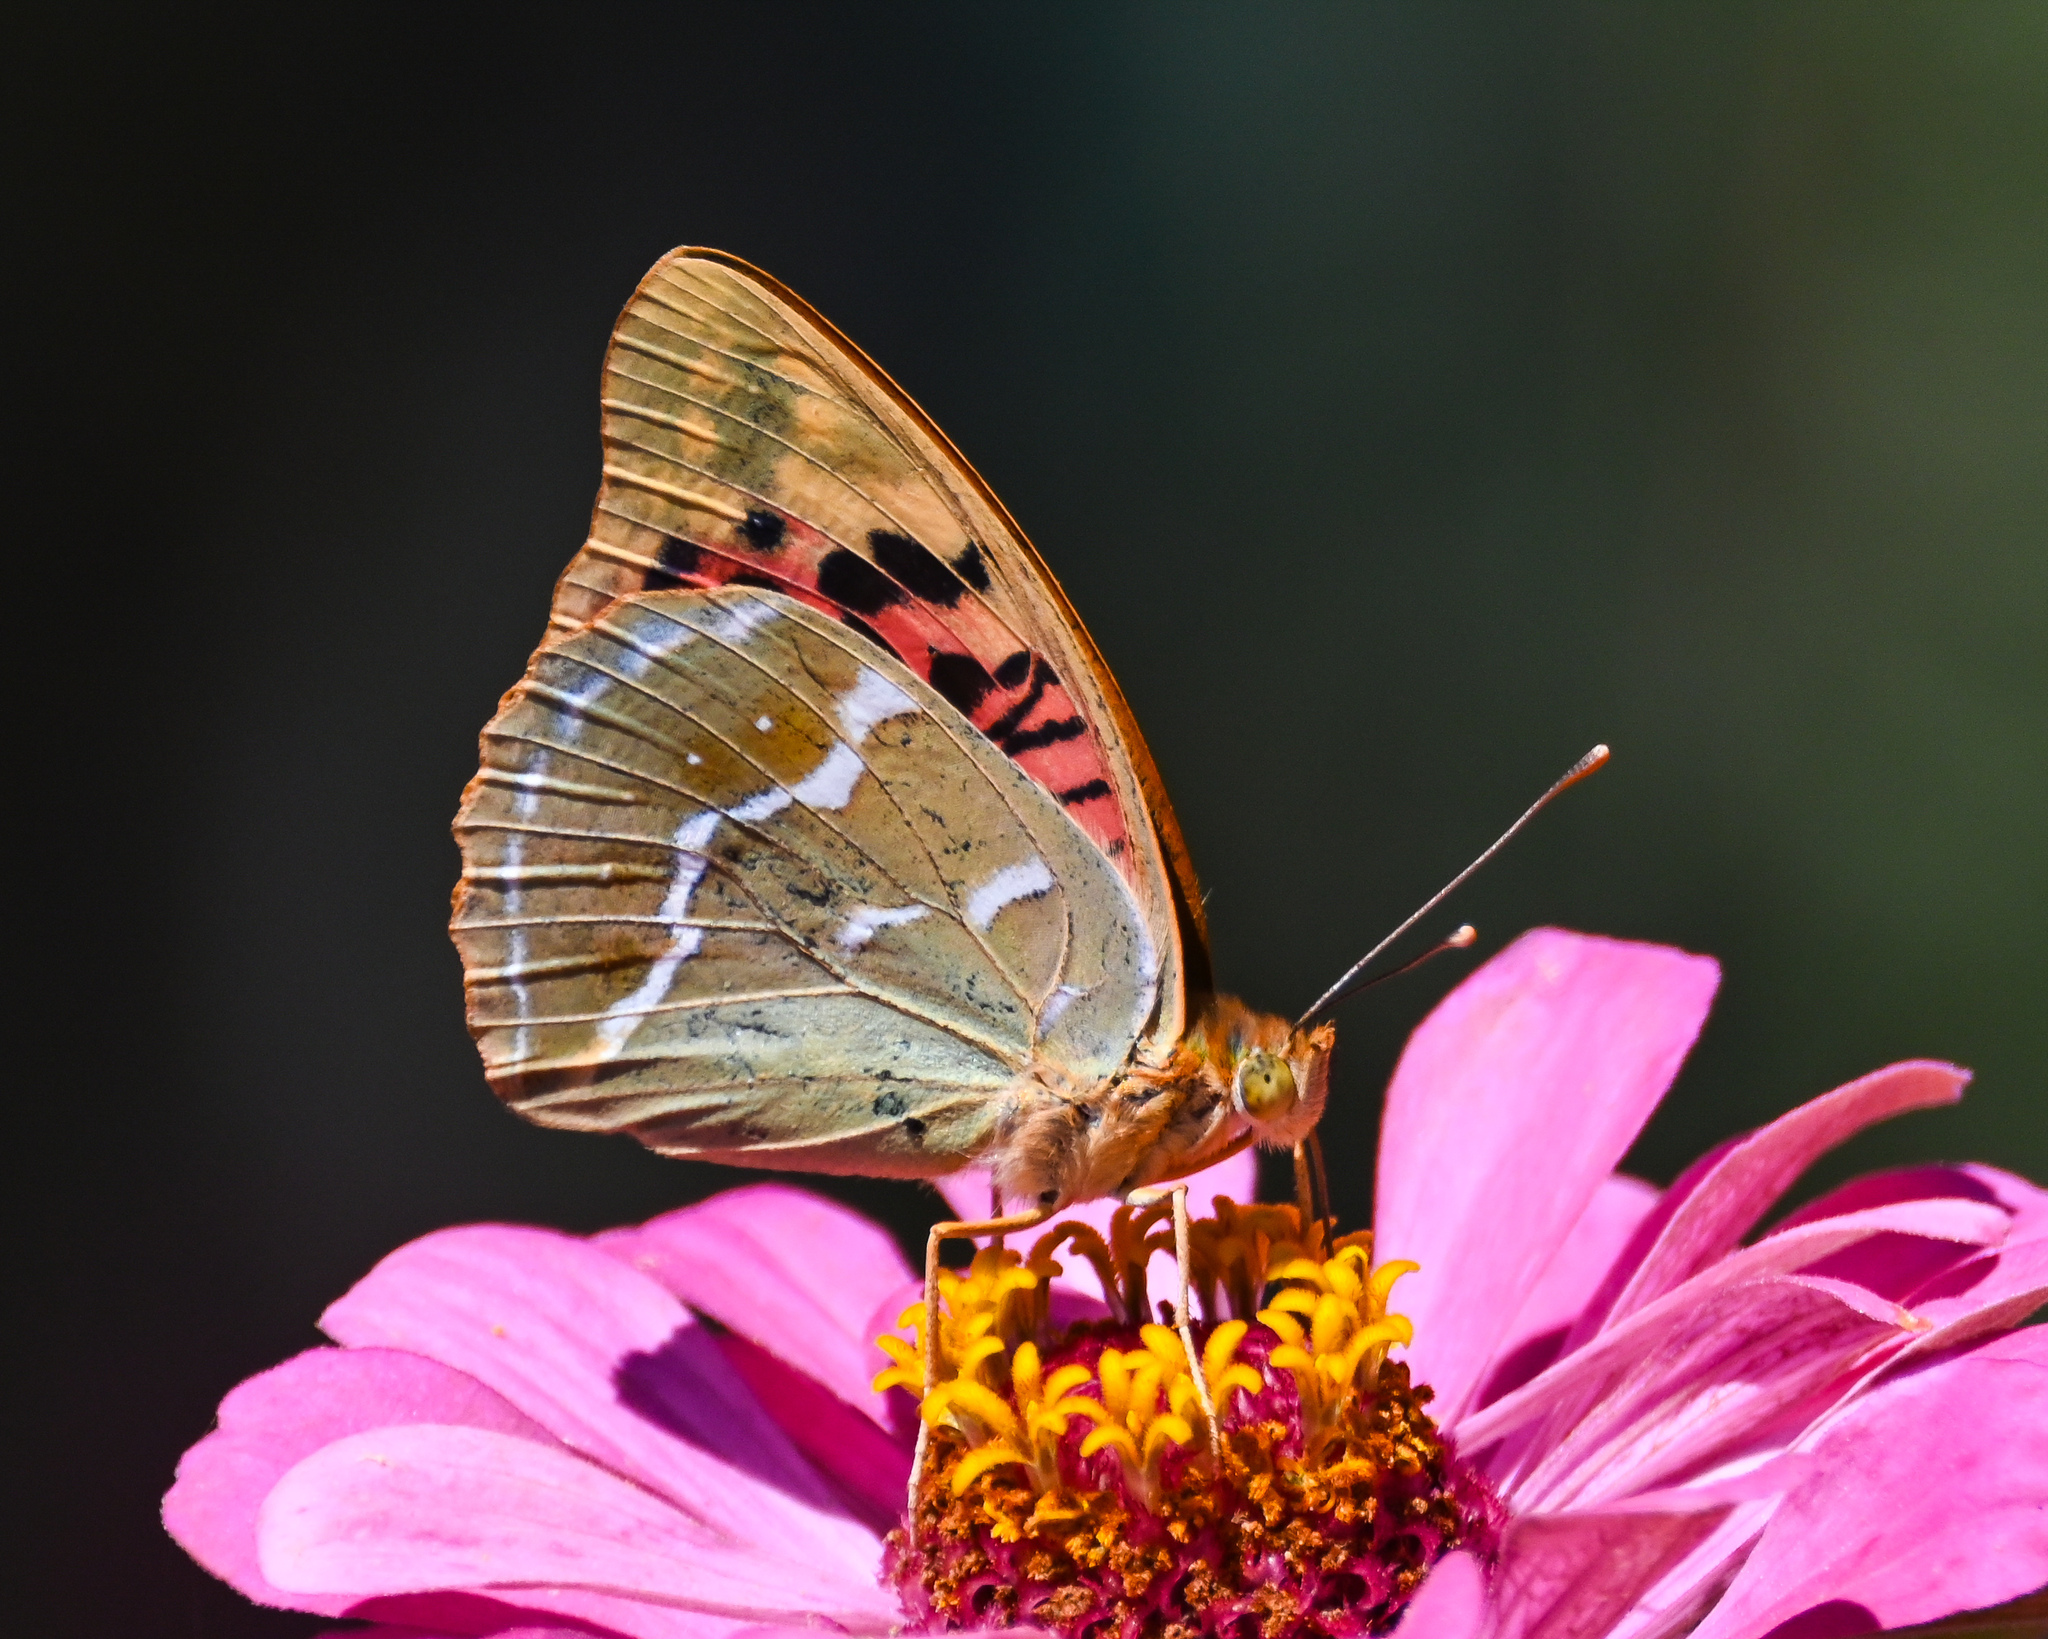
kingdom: Animalia
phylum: Arthropoda
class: Insecta
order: Lepidoptera
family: Nymphalidae
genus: Damora
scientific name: Damora pandora
